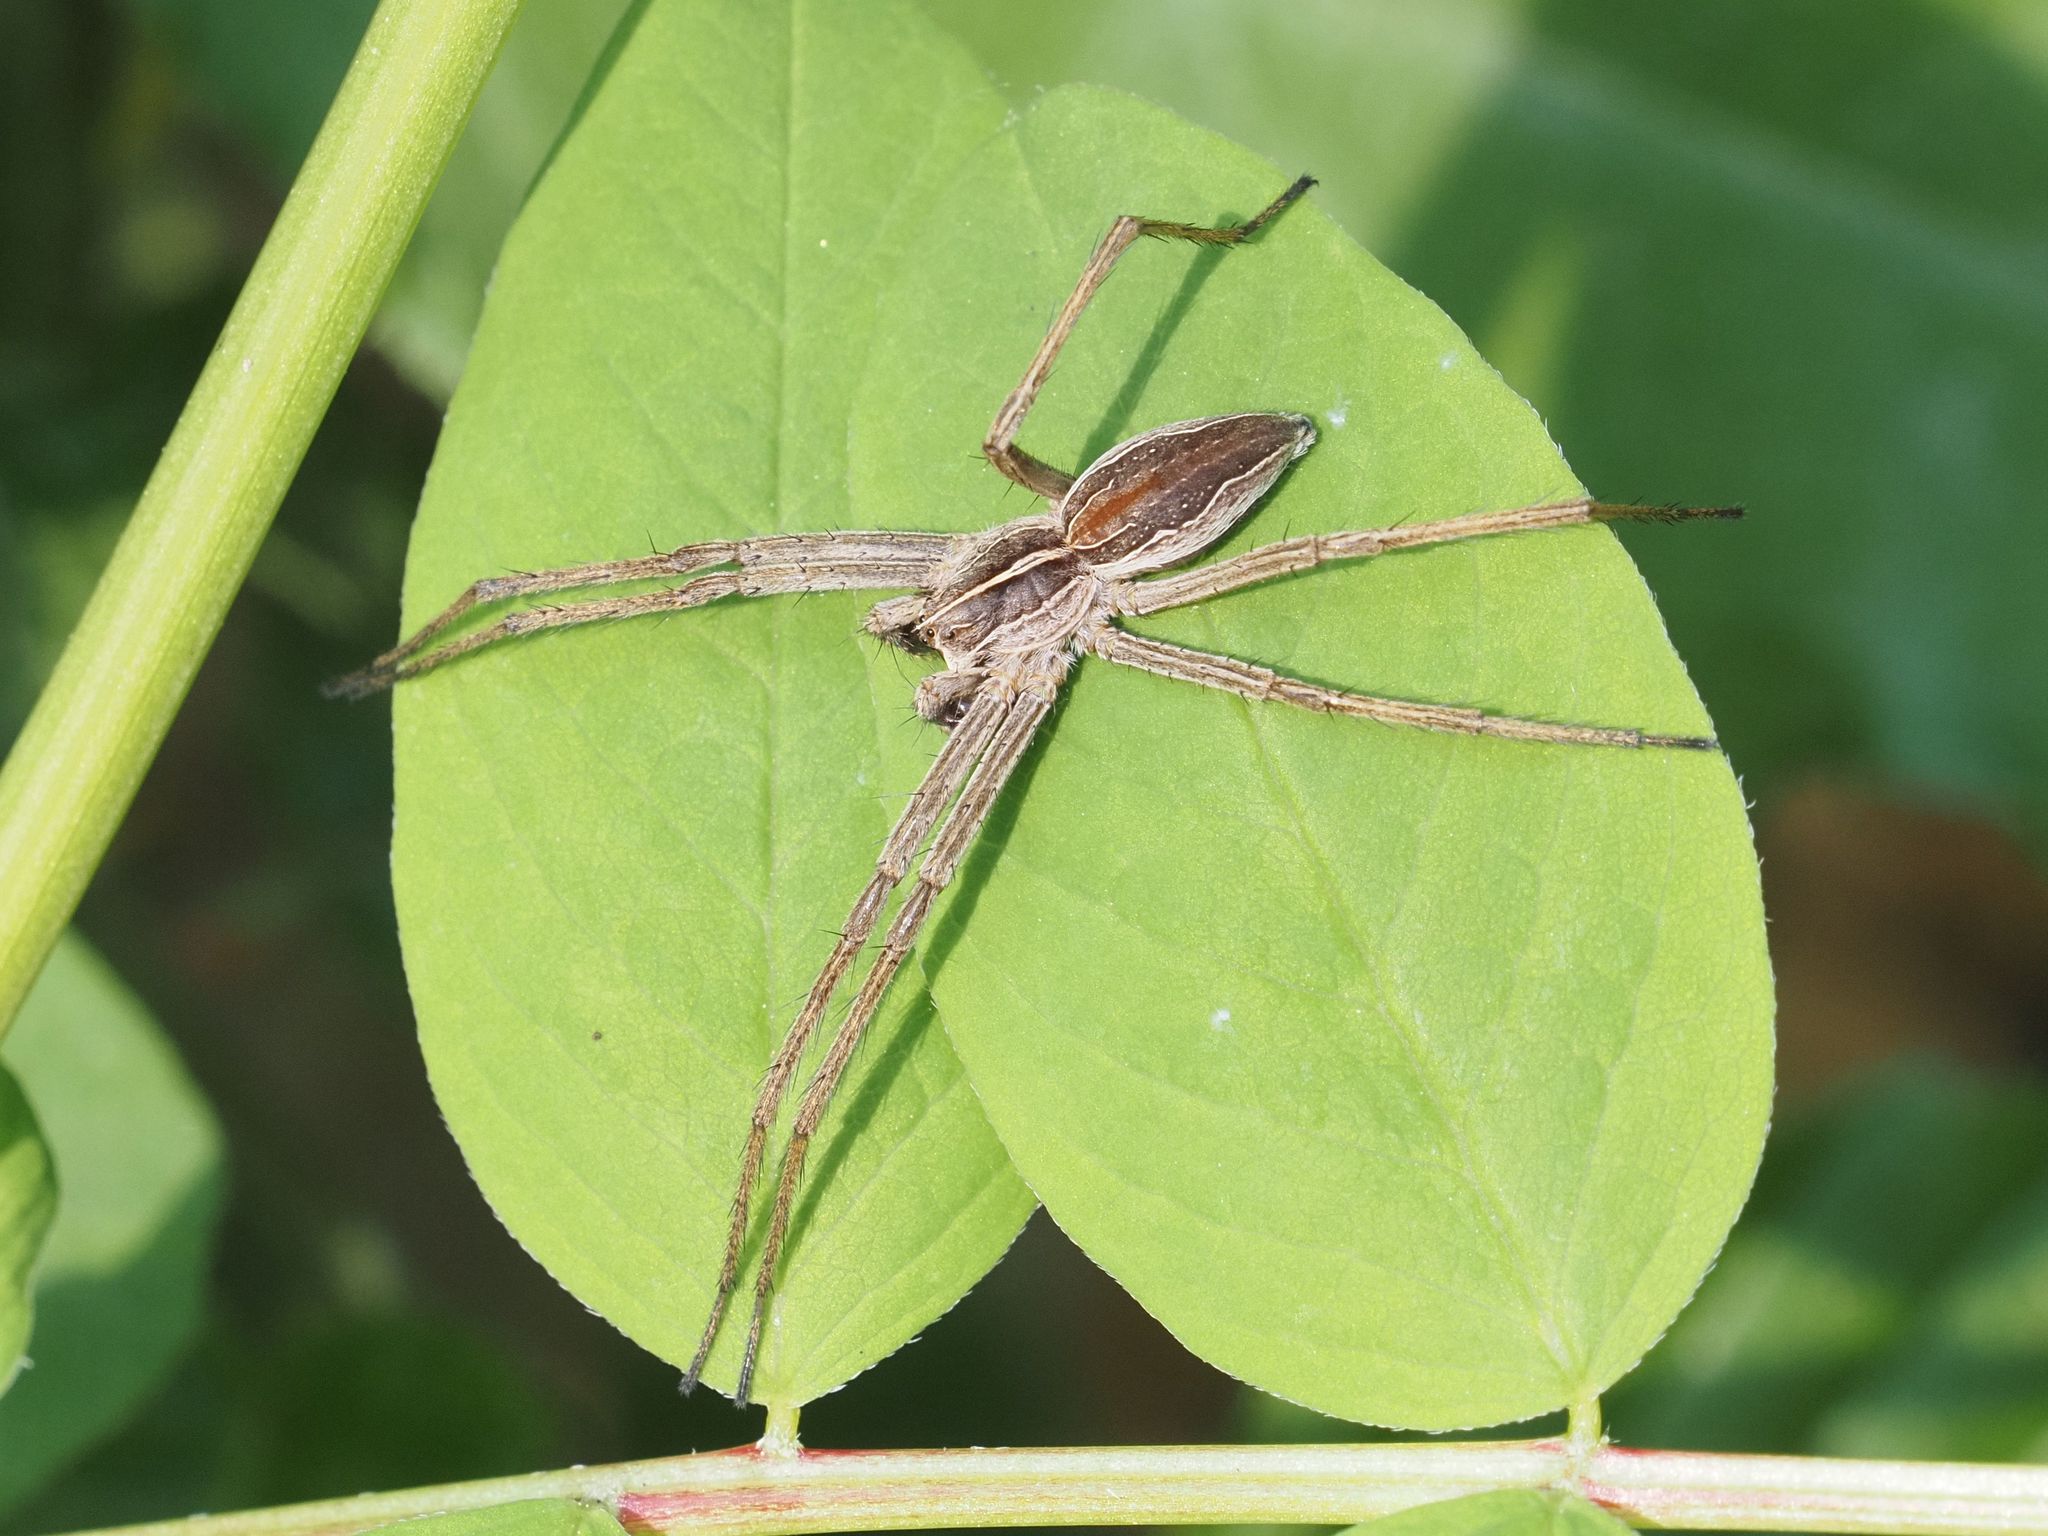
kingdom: Animalia
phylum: Arthropoda
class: Arachnida
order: Araneae
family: Pisauridae
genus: Pisaura
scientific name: Pisaura mirabilis
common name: Tent spider
